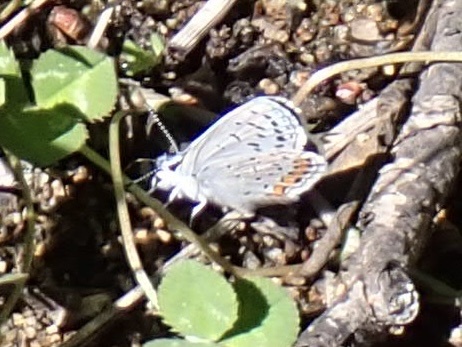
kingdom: Animalia
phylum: Arthropoda
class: Insecta
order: Lepidoptera
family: Lycaenidae
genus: Icaricia
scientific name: Icaricia acmon
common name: Acmon blue
